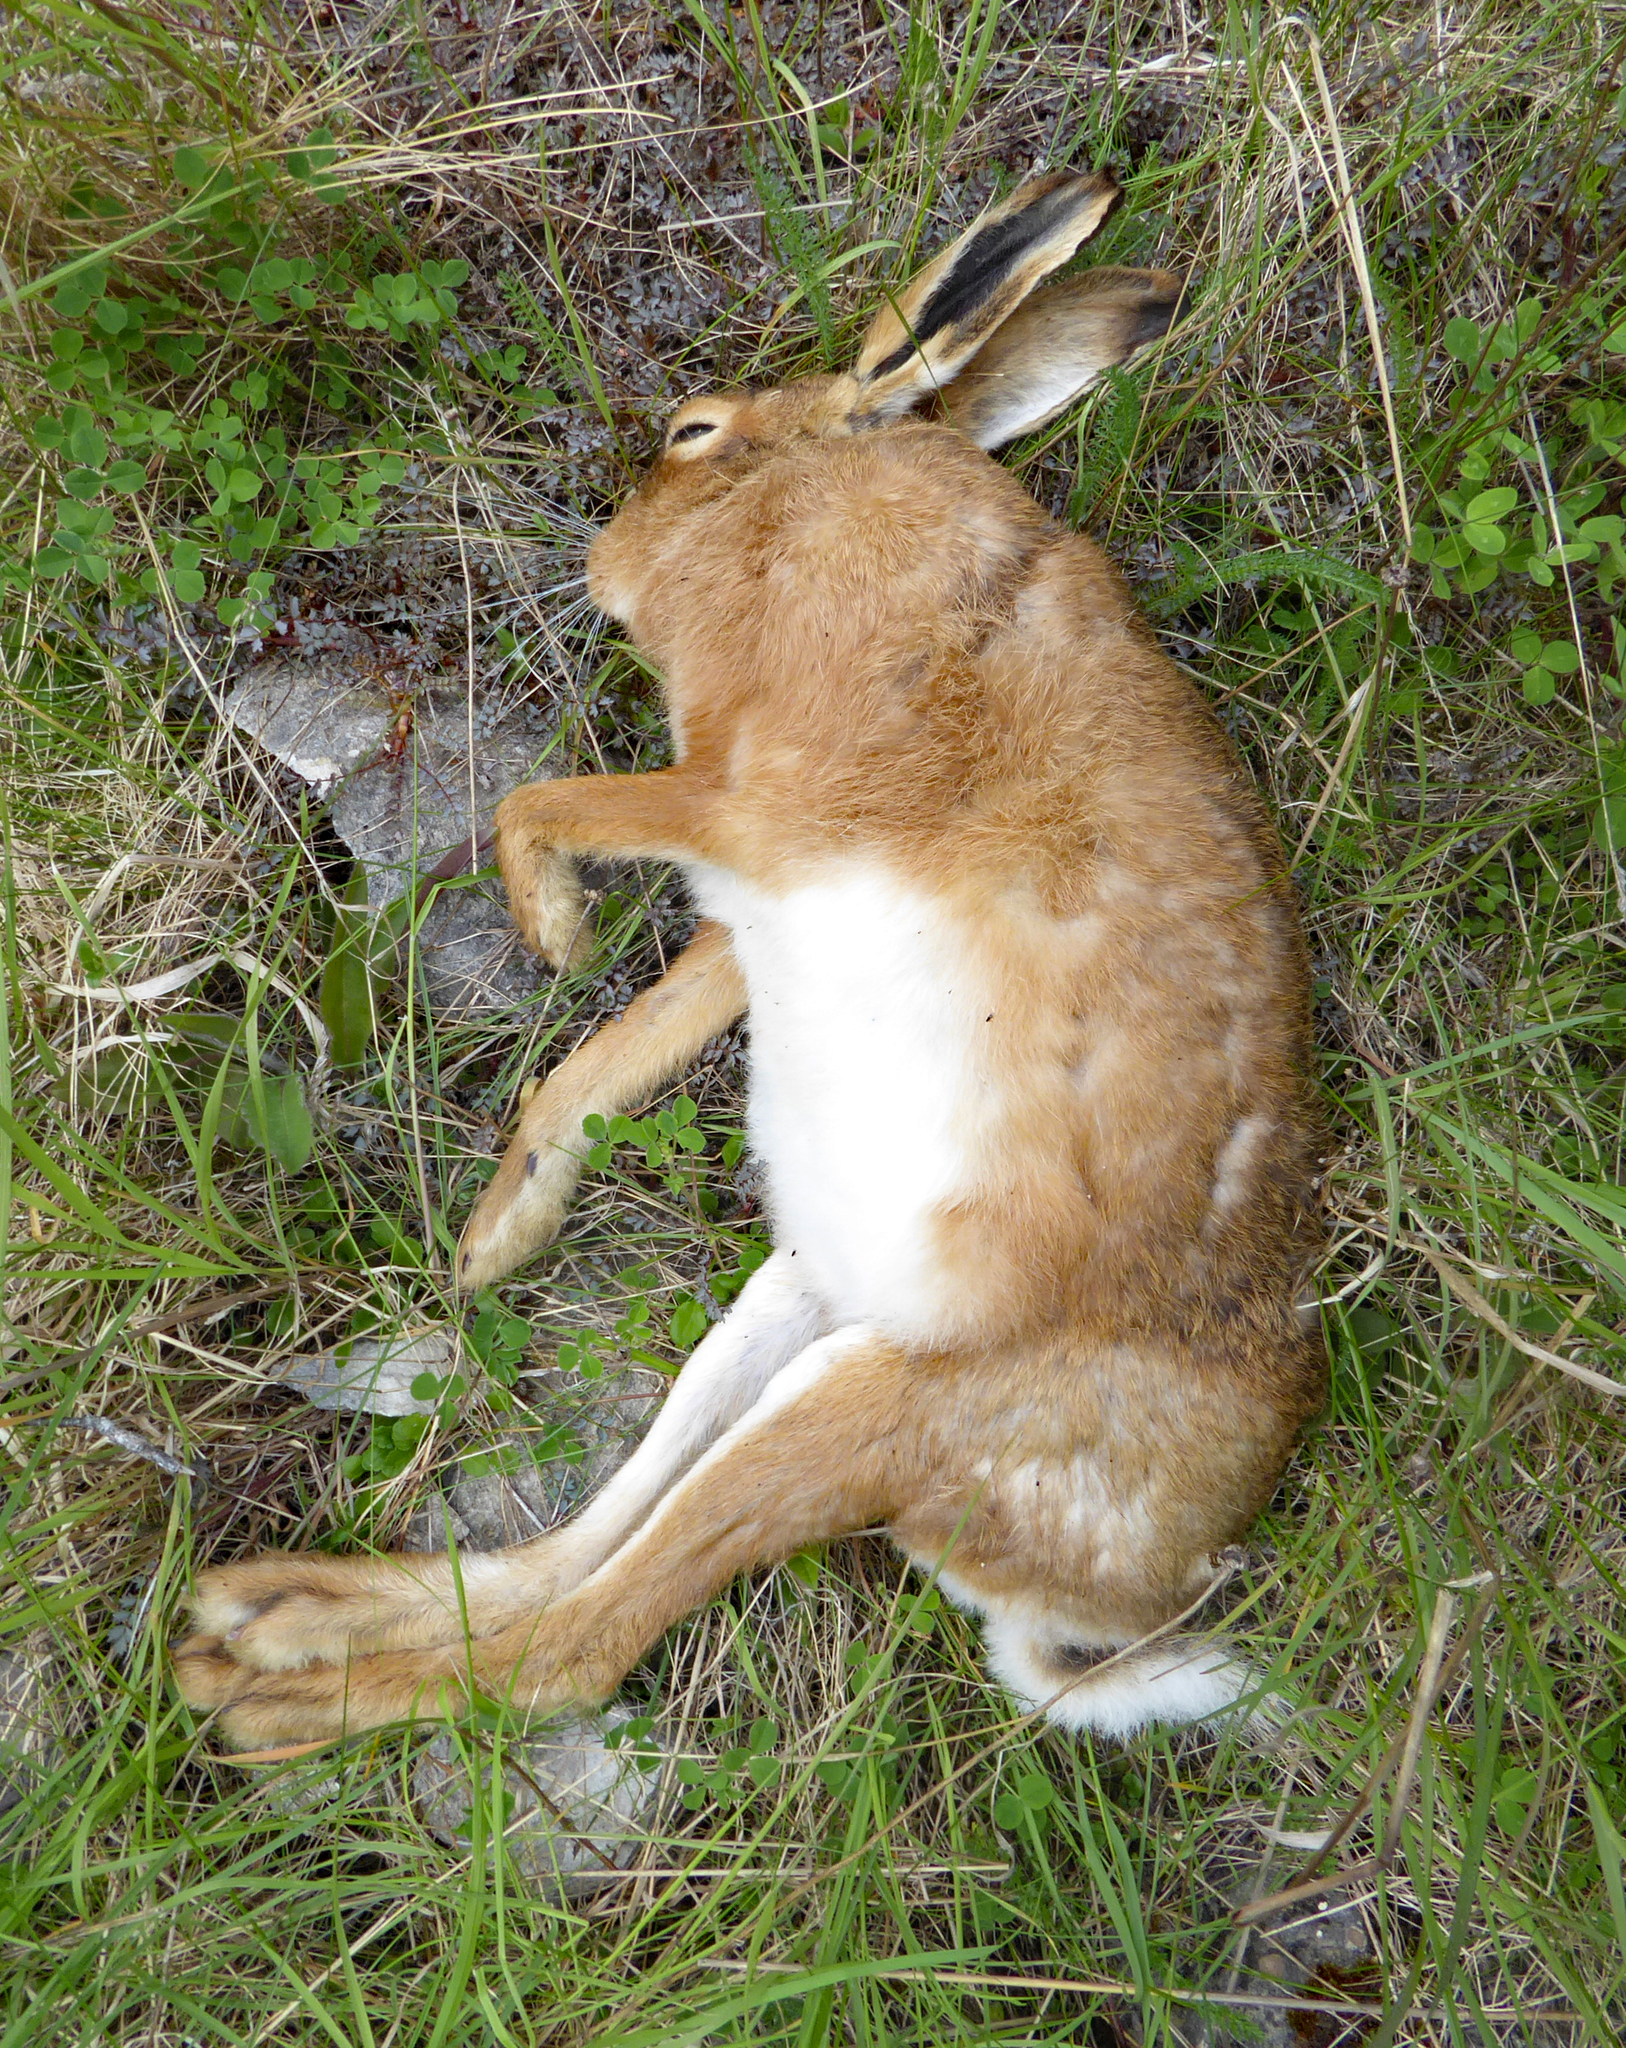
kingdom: Animalia
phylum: Chordata
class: Mammalia
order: Lagomorpha
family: Leporidae
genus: Lepus
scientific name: Lepus europaeus
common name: European hare
